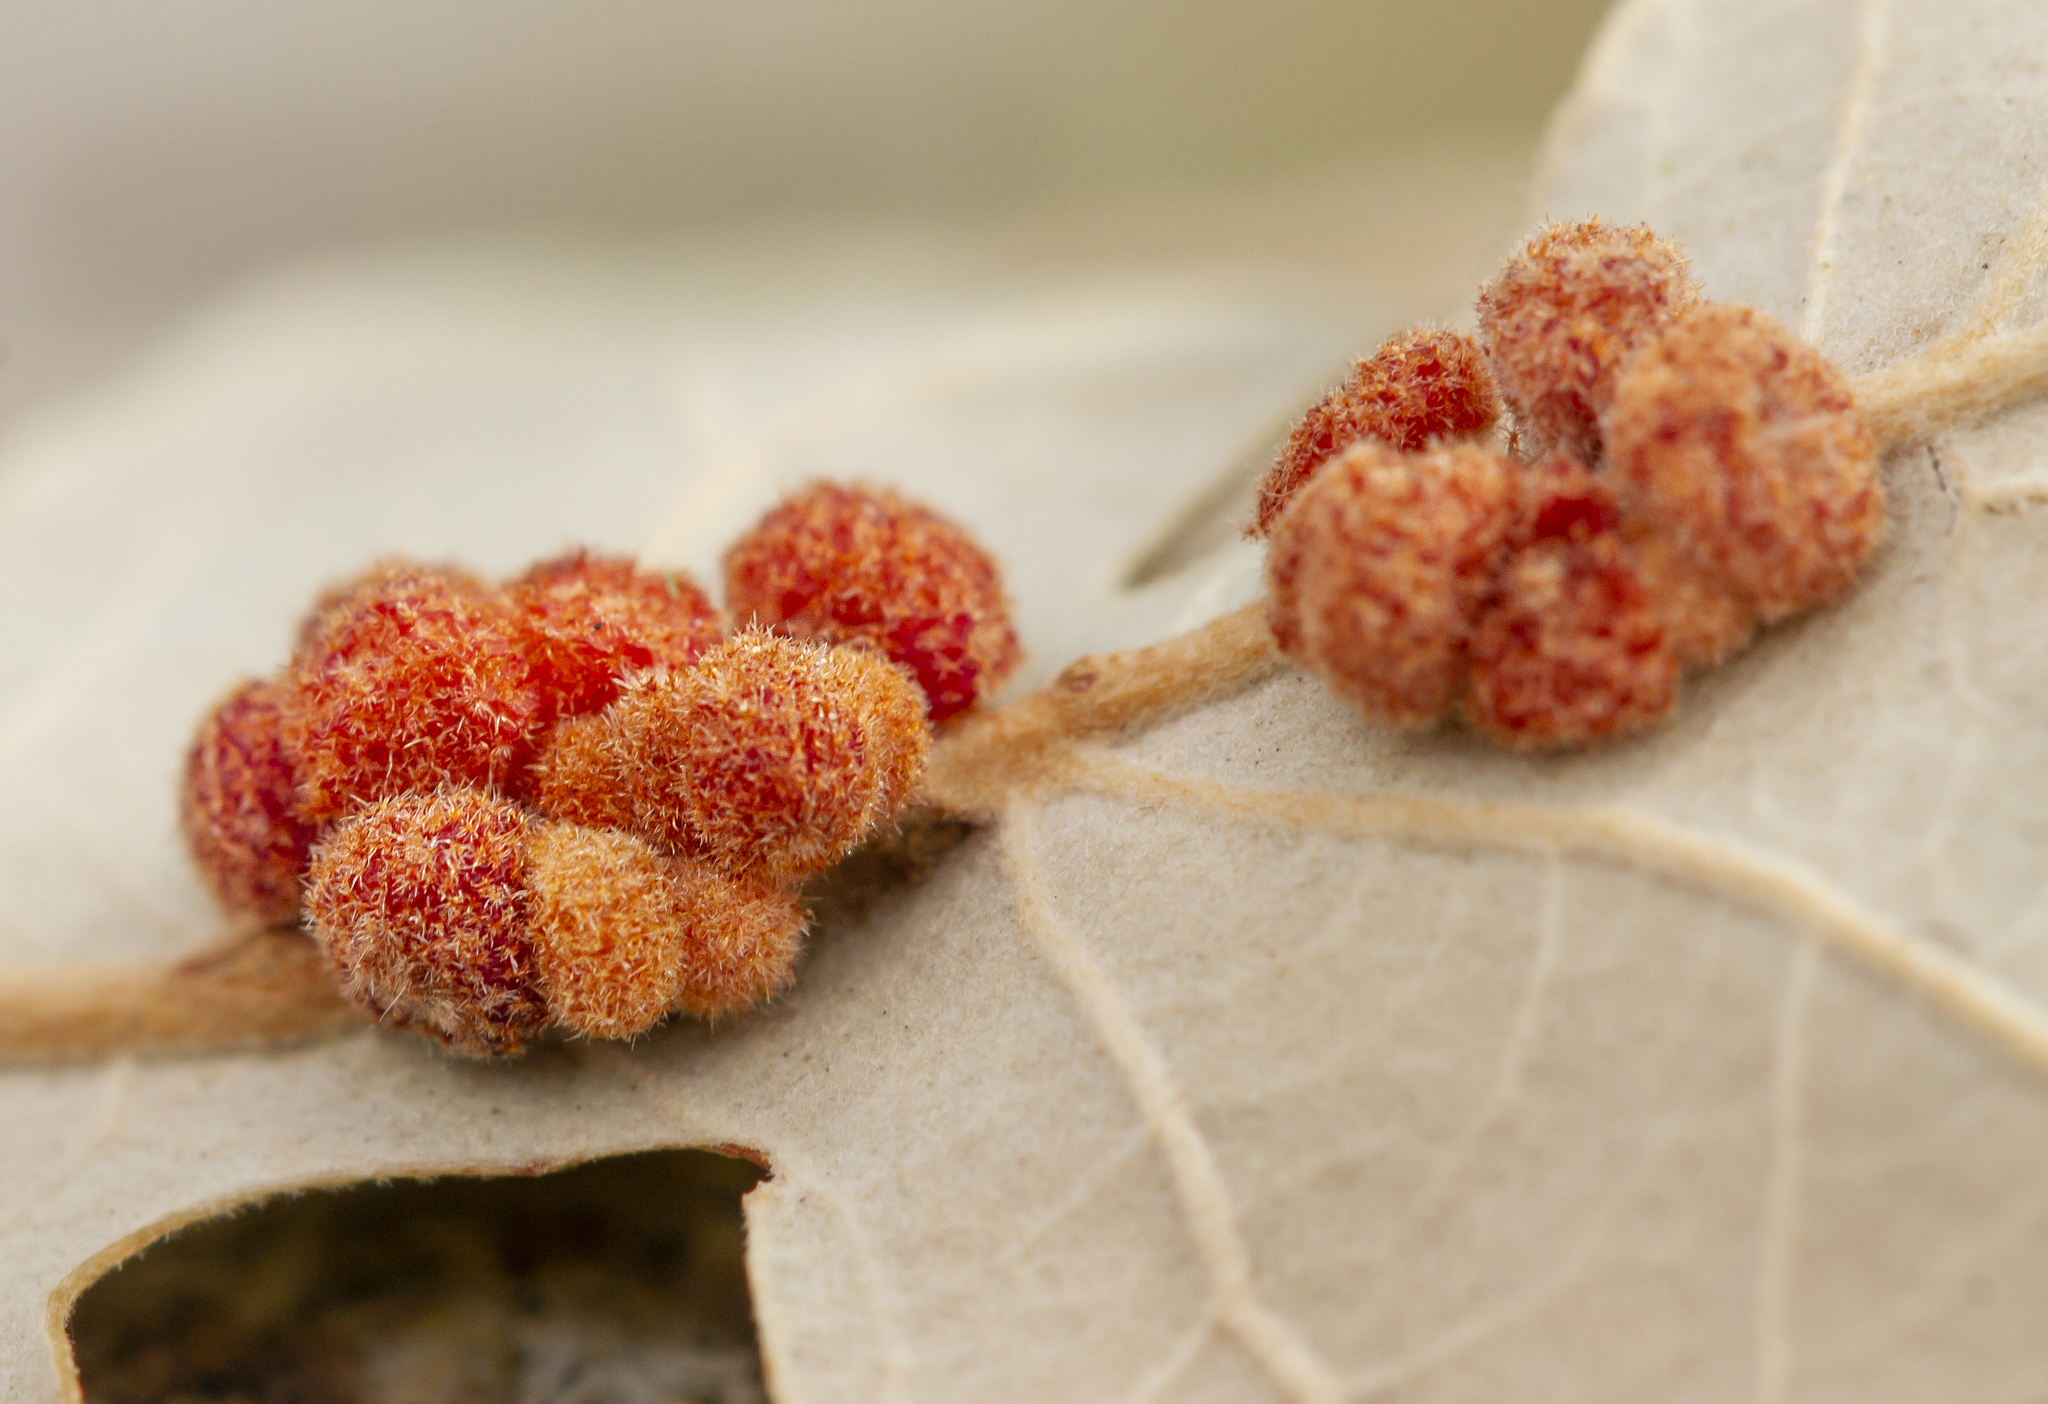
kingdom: Animalia
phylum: Arthropoda
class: Insecta
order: Hymenoptera
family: Cynipidae
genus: Andricus
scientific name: Andricus
